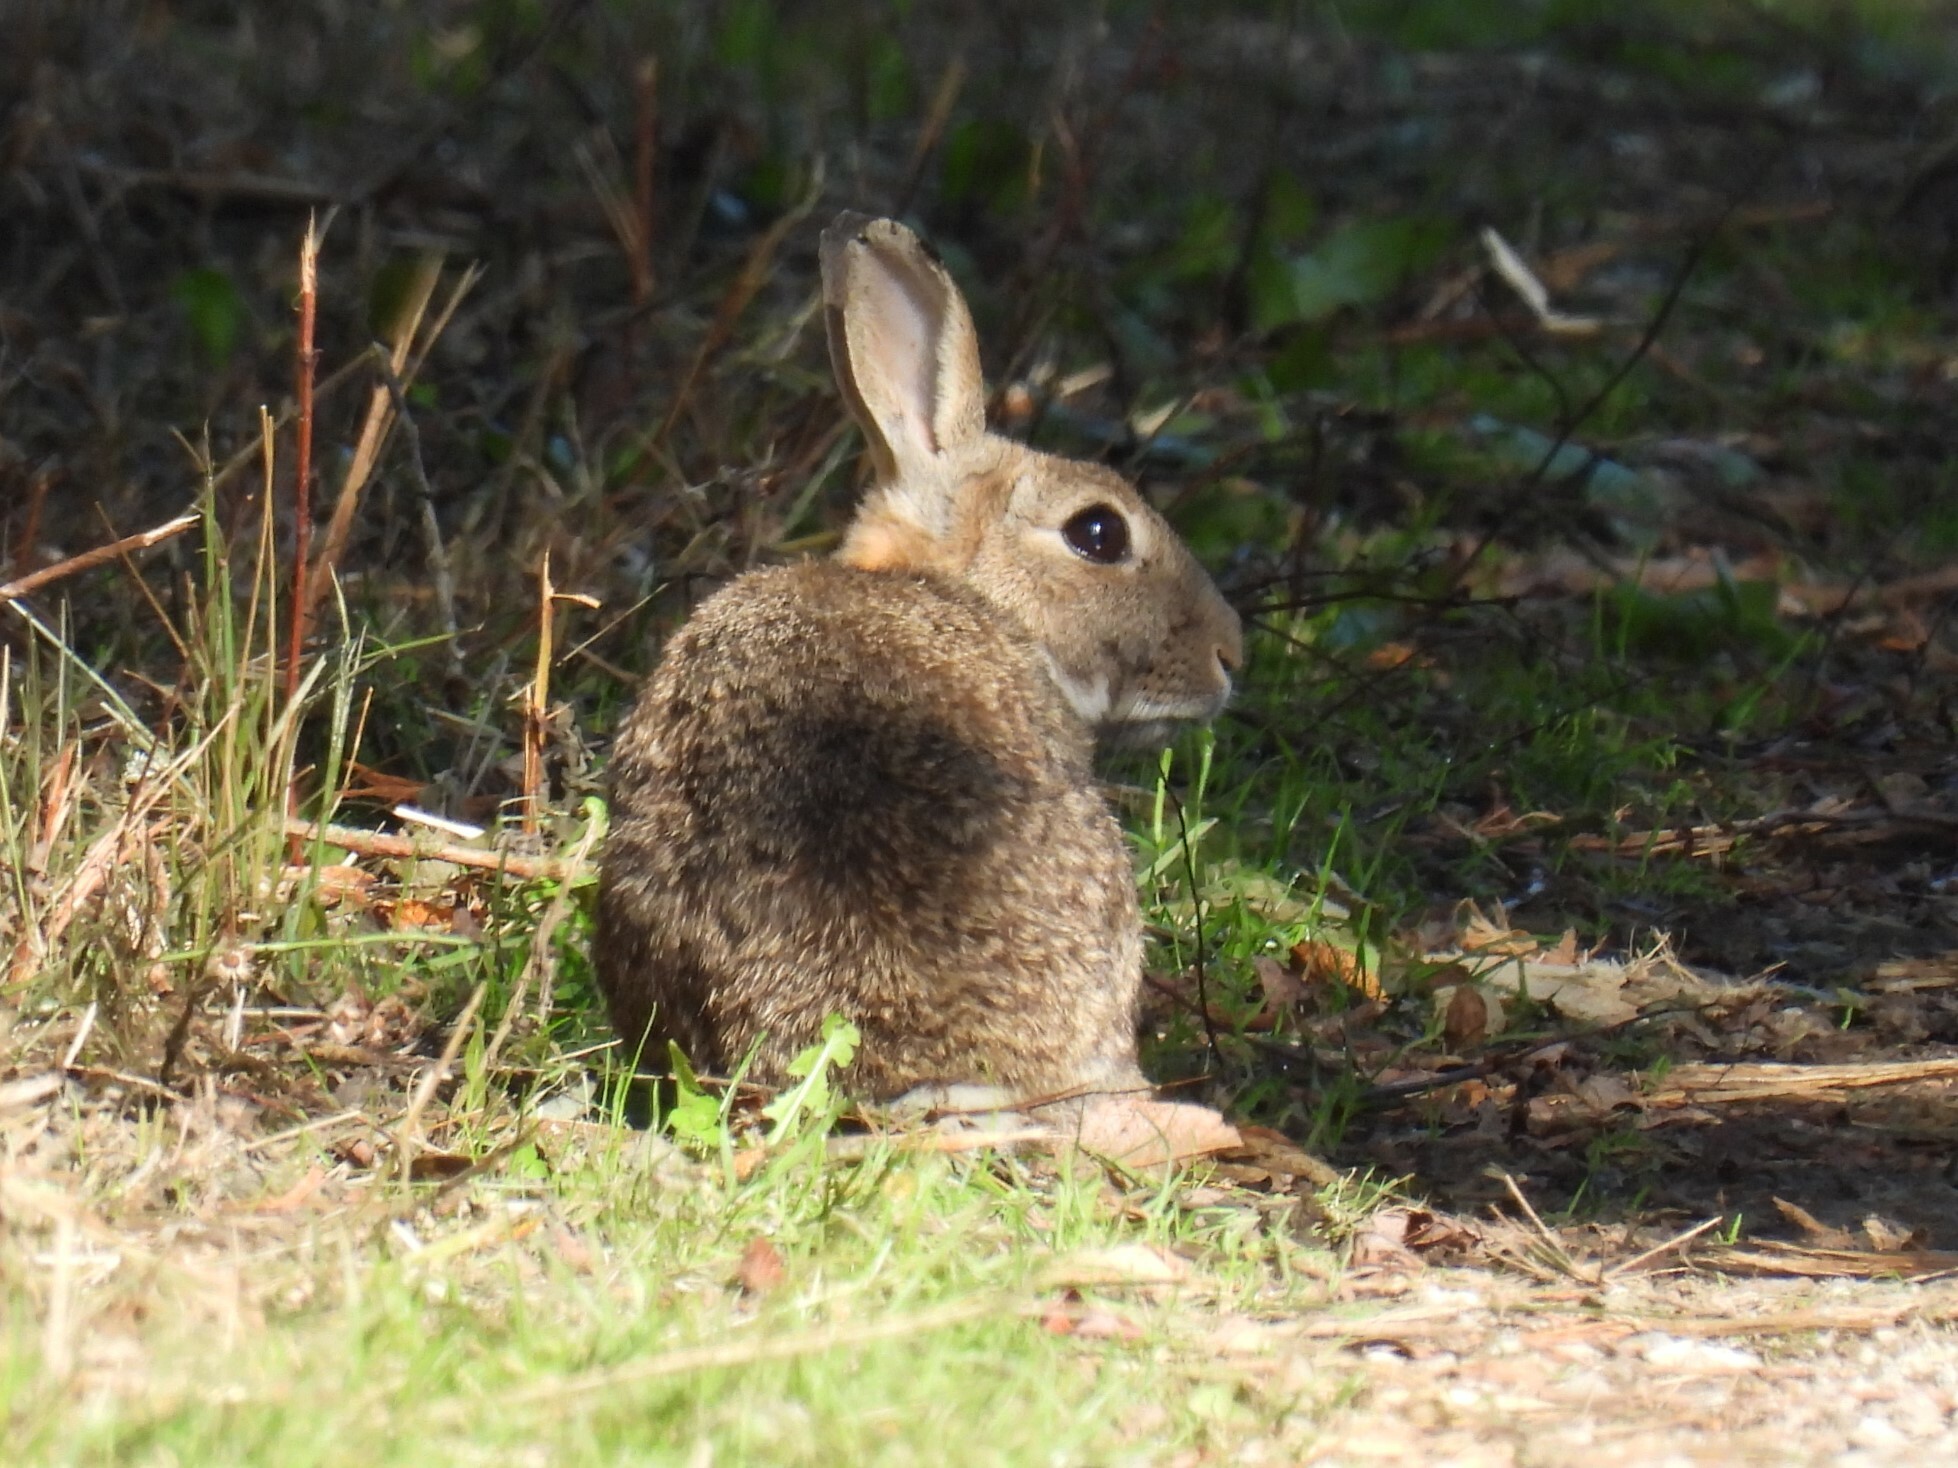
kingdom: Animalia
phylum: Chordata
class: Mammalia
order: Lagomorpha
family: Leporidae
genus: Oryctolagus
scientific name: Oryctolagus cuniculus
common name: European rabbit
